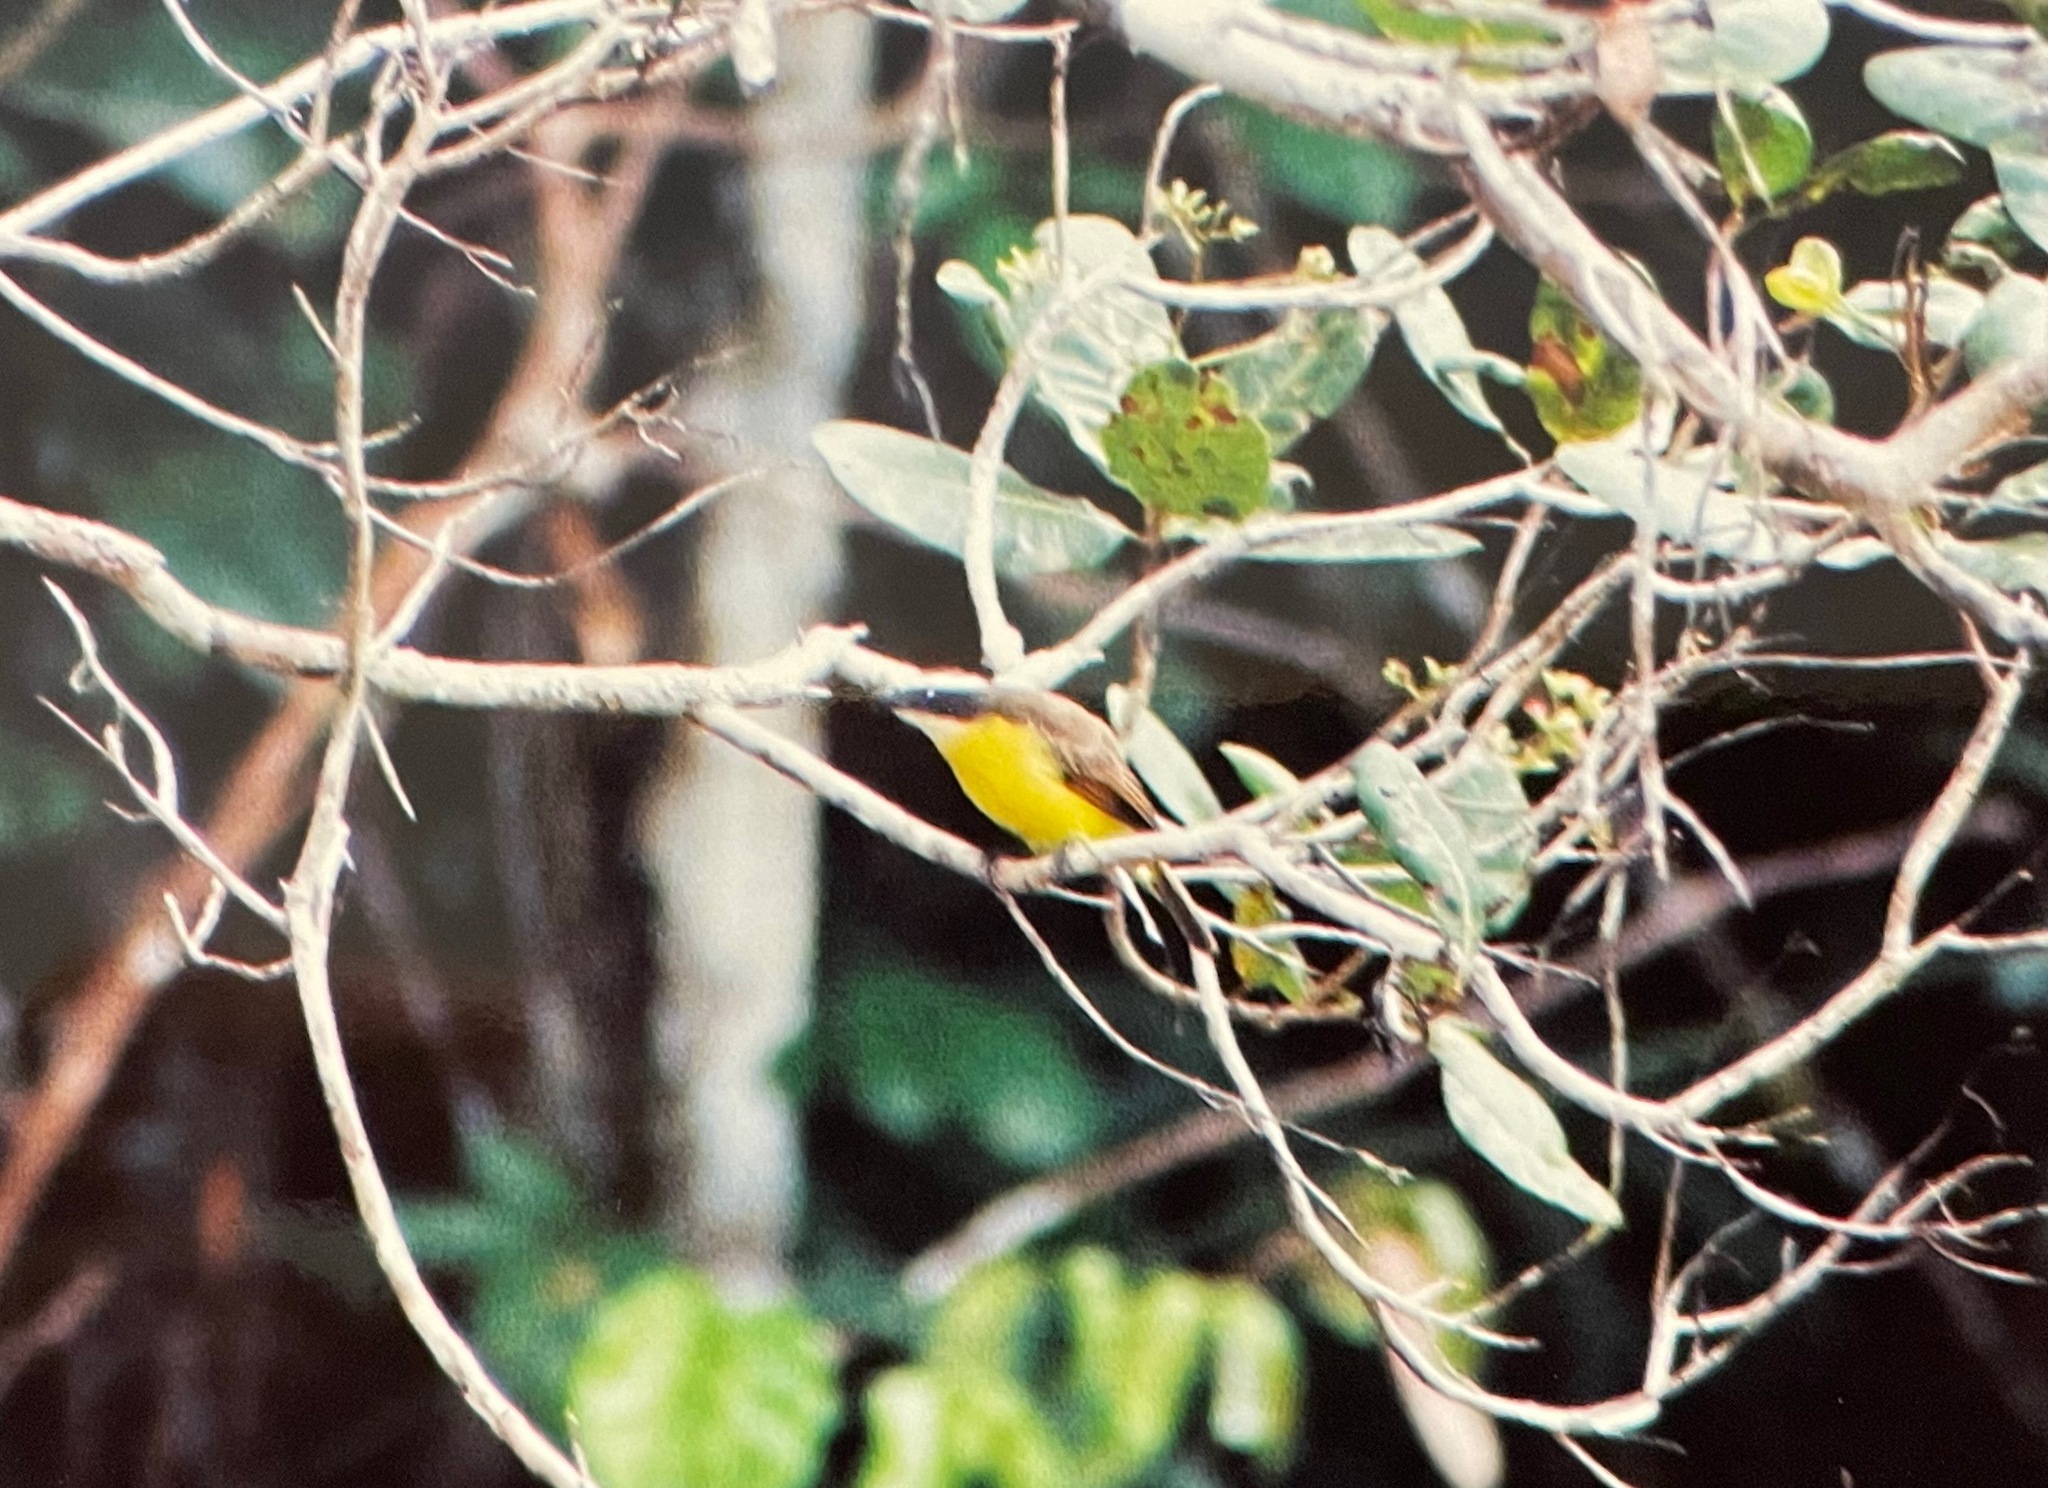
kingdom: Animalia
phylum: Chordata
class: Aves
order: Passeriformes
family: Tyrannidae
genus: Myiozetetes
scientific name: Myiozetetes cayanensis
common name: Rusty-margined flycatcher
